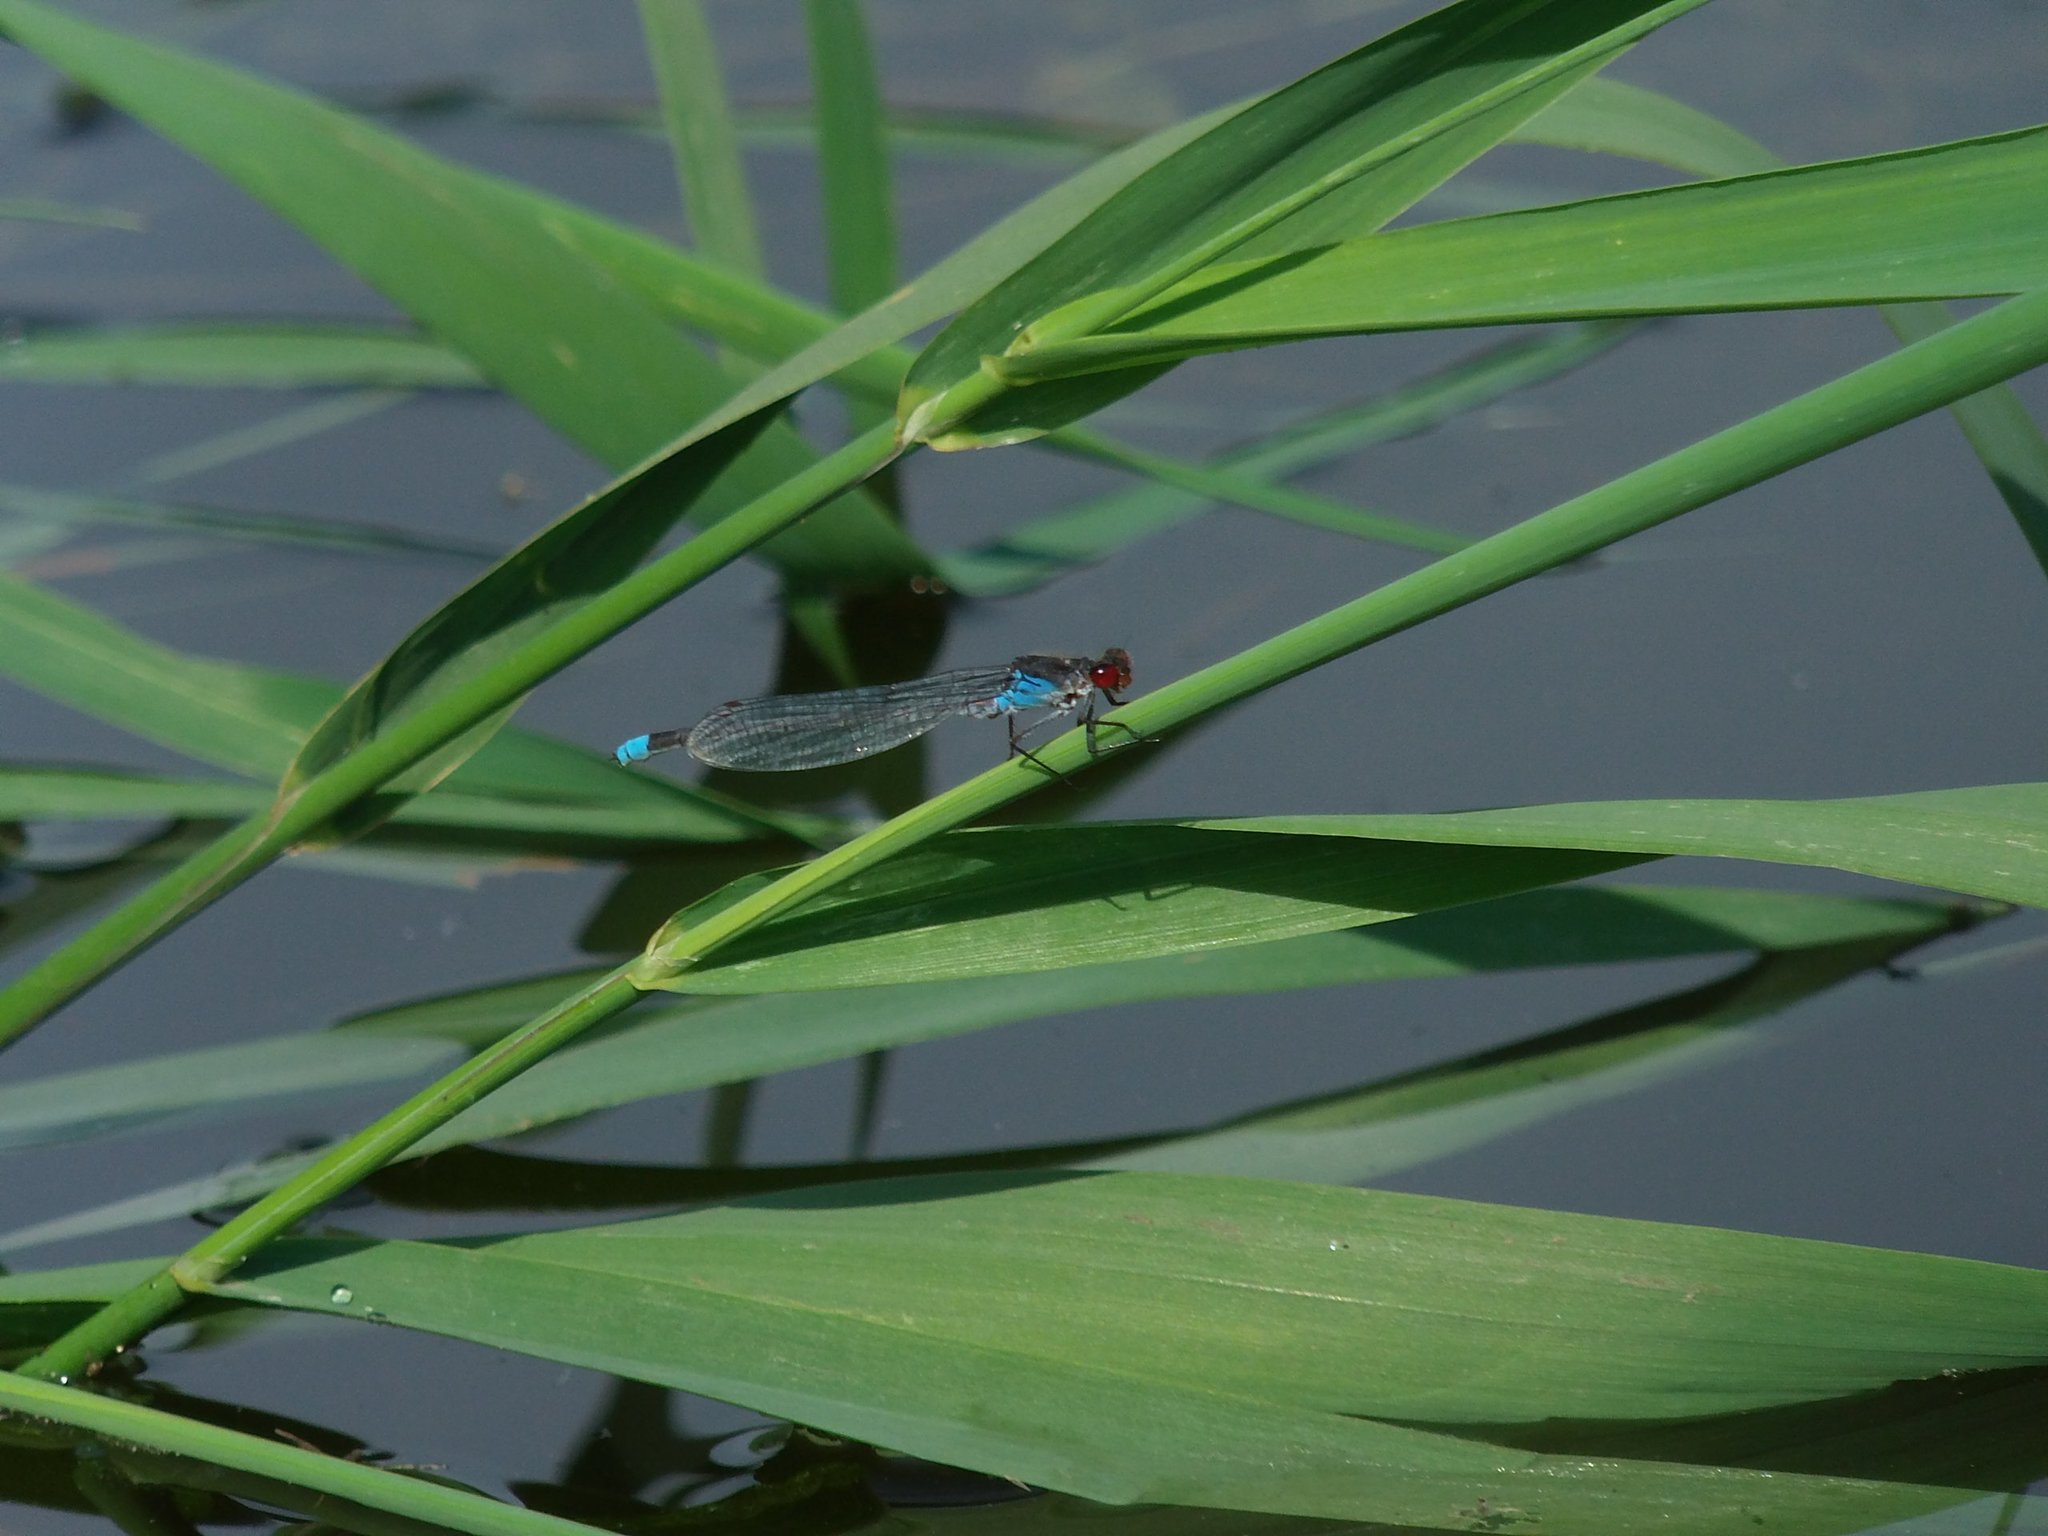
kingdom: Animalia
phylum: Arthropoda
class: Insecta
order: Odonata
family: Coenagrionidae
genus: Erythromma
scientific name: Erythromma najas
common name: Red-eyed damselfly
